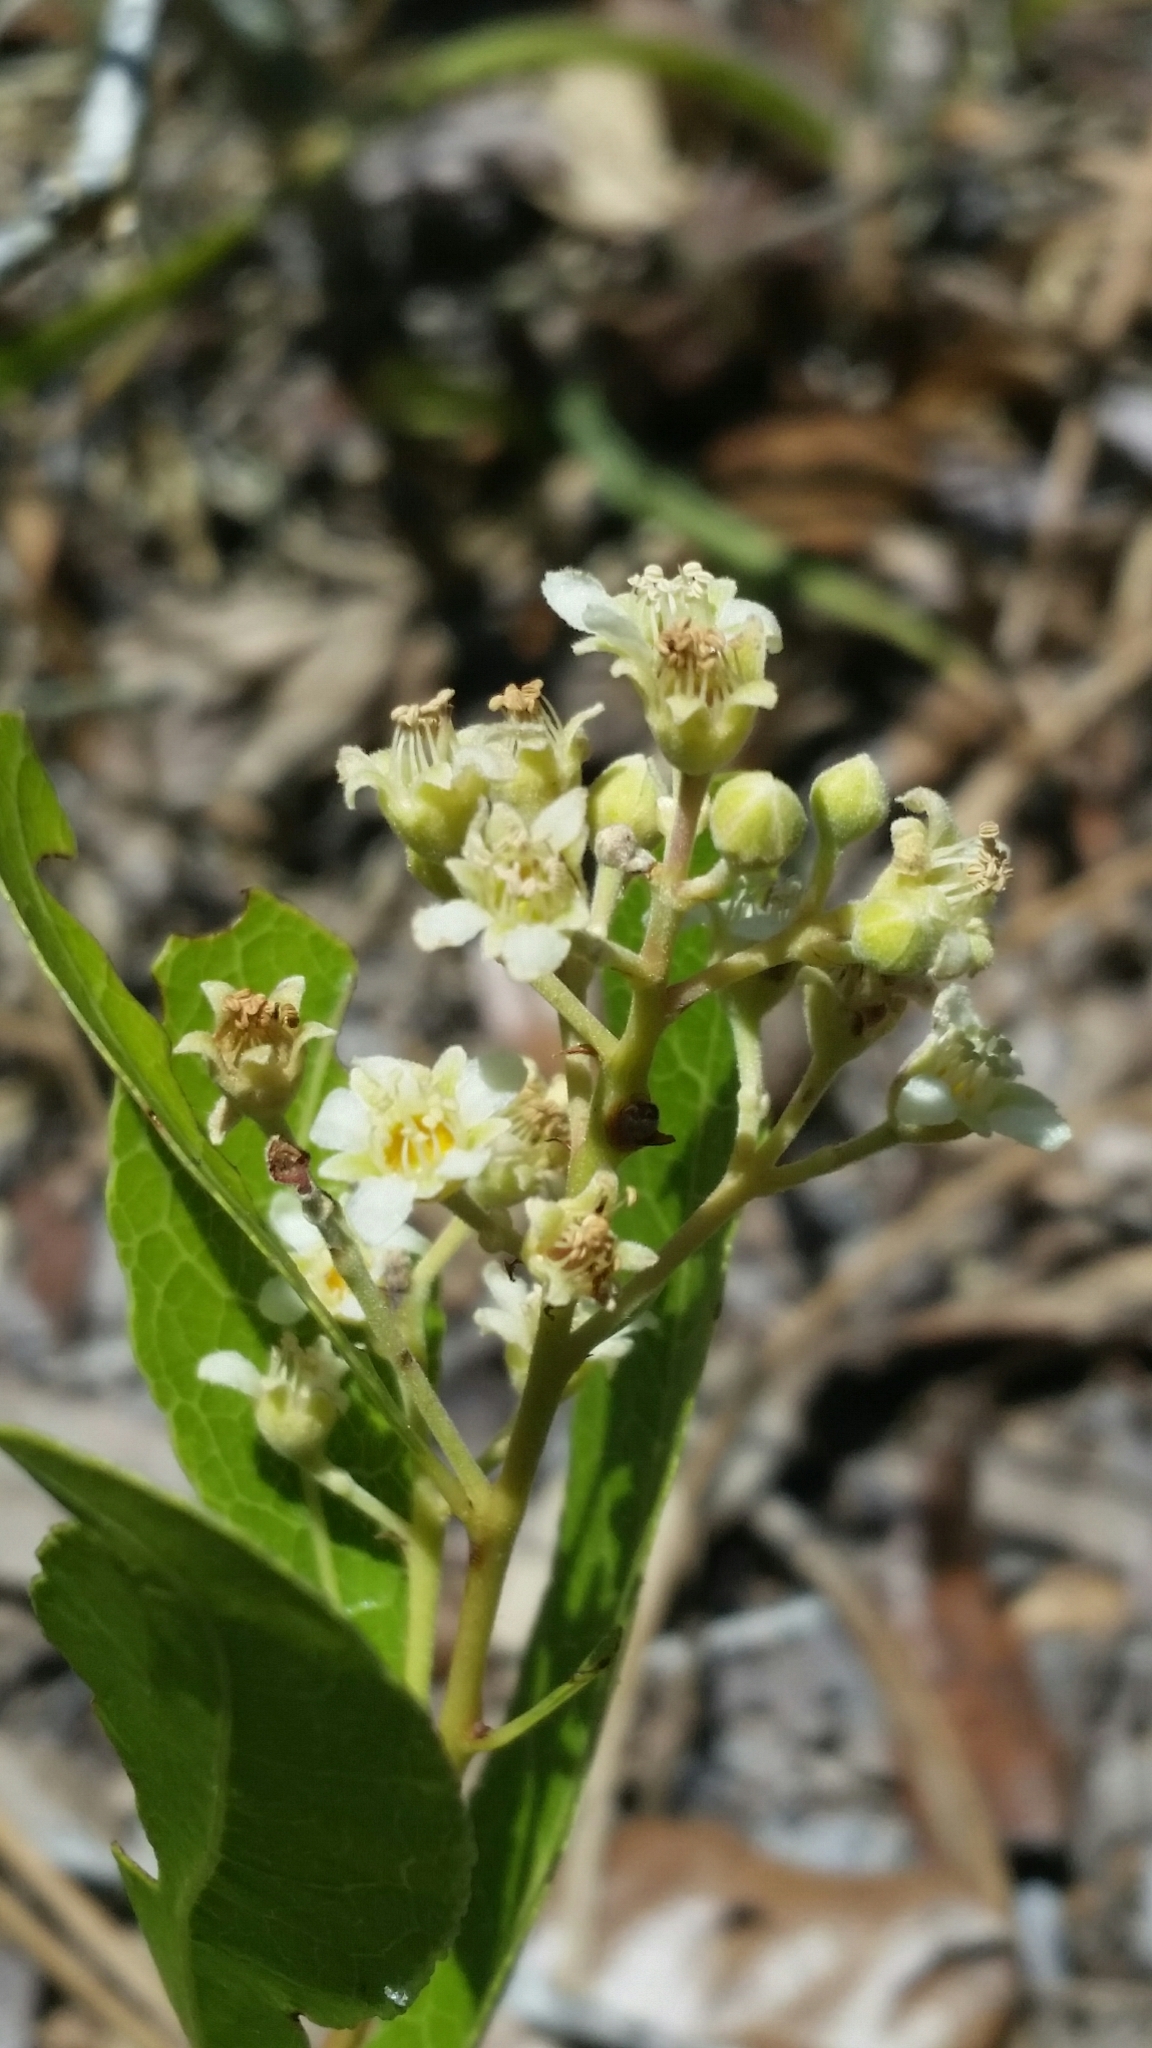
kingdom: Plantae
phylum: Tracheophyta
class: Magnoliopsida
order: Malpighiales
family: Chrysobalanaceae
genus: Geobalanus
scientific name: Geobalanus oblongifolius
